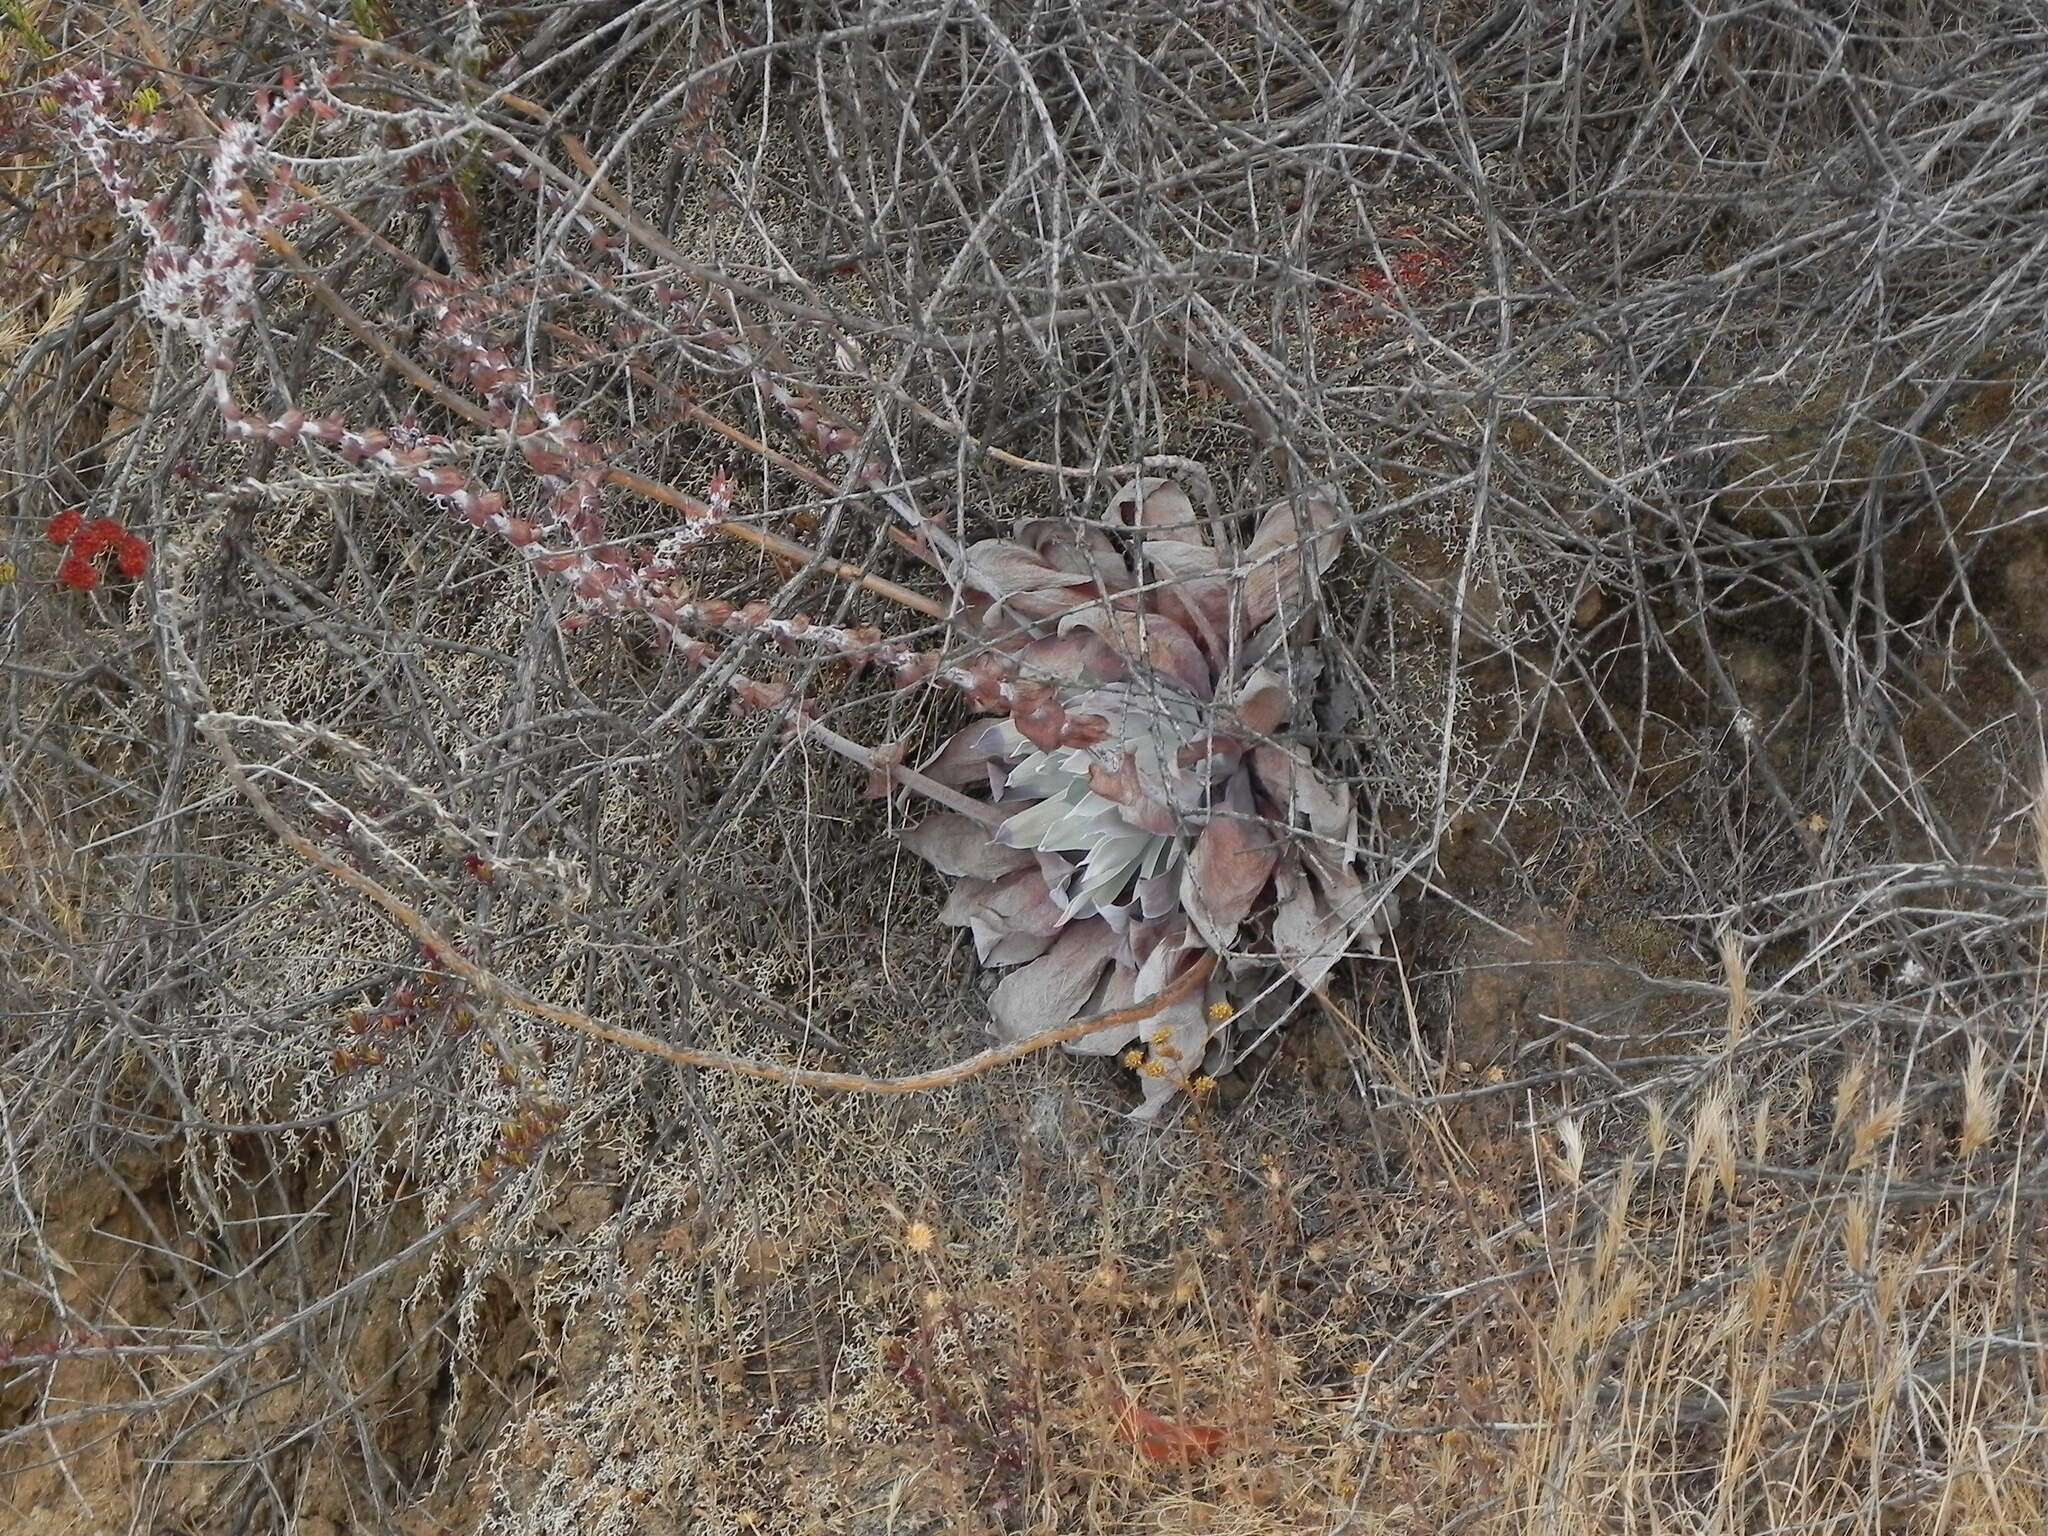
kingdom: Plantae
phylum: Tracheophyta
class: Magnoliopsida
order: Saxifragales
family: Crassulaceae
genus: Dudleya
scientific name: Dudleya pulverulenta
